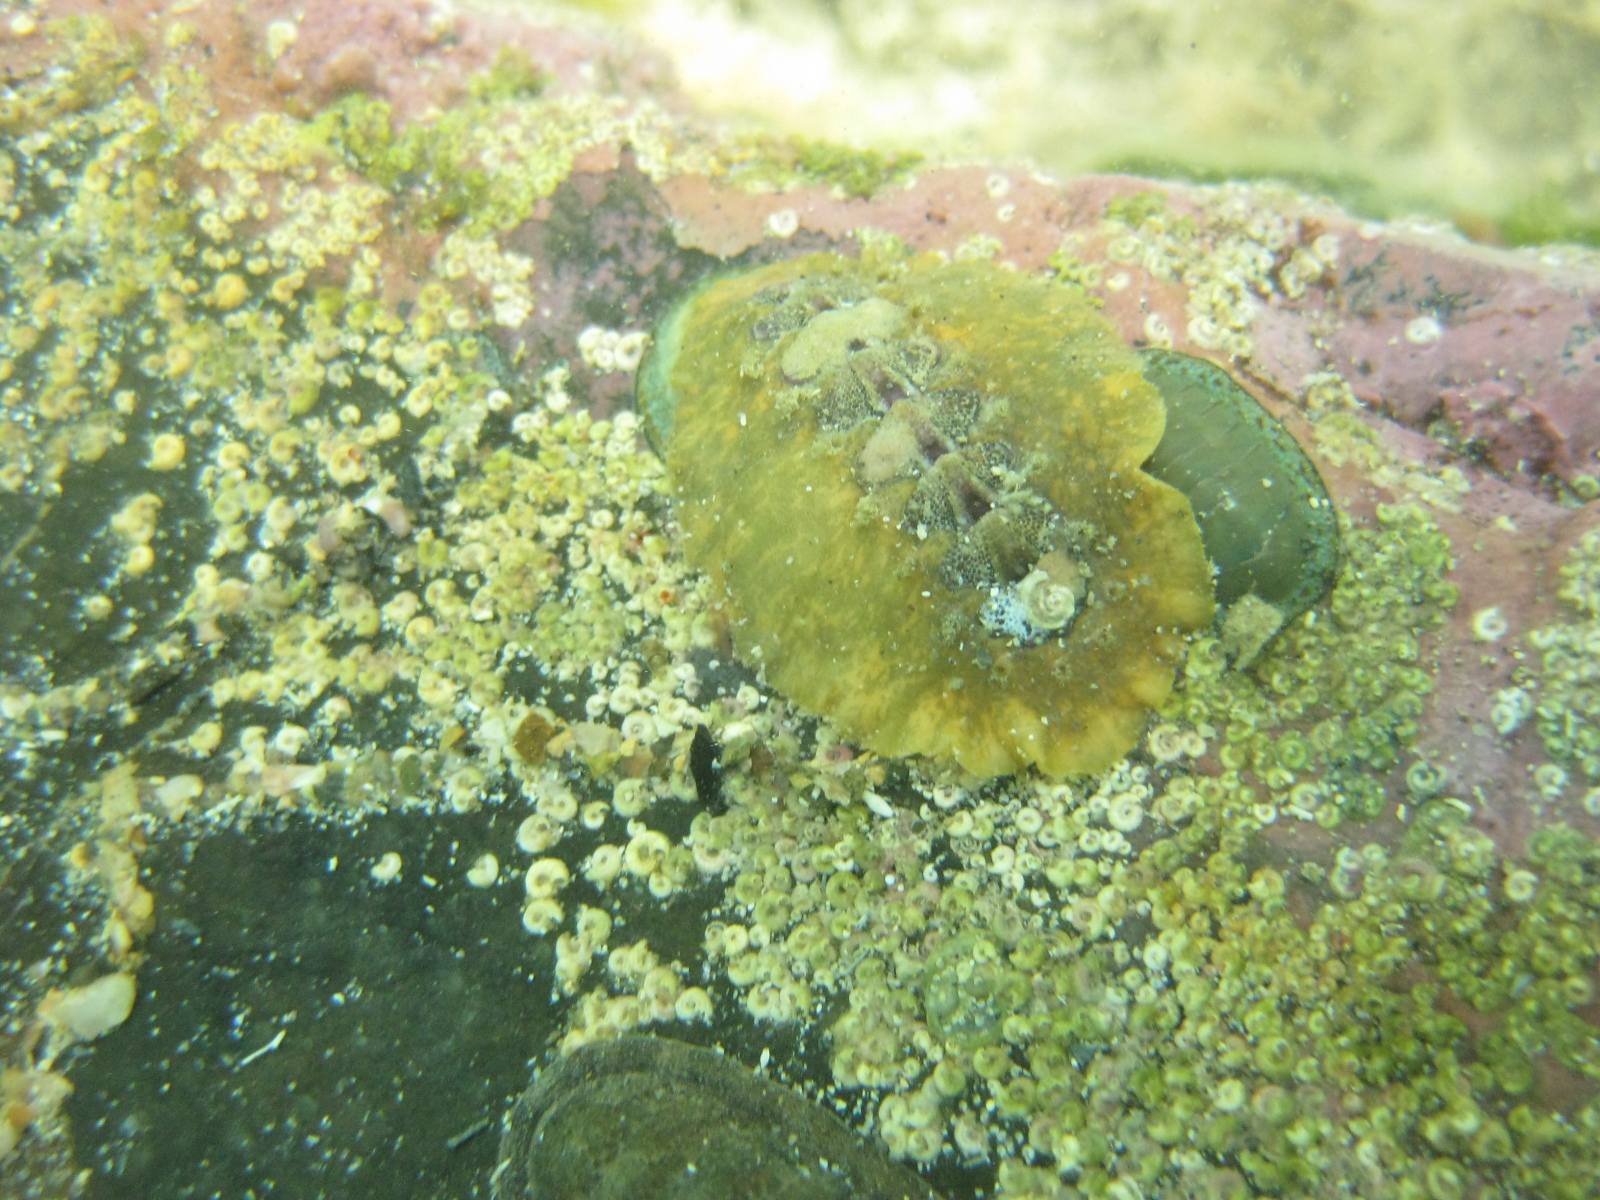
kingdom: Animalia
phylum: Mollusca
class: Polyplacophora
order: Chitonida
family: Acanthochitonidae
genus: Notoplax
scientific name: Notoplax violacea
